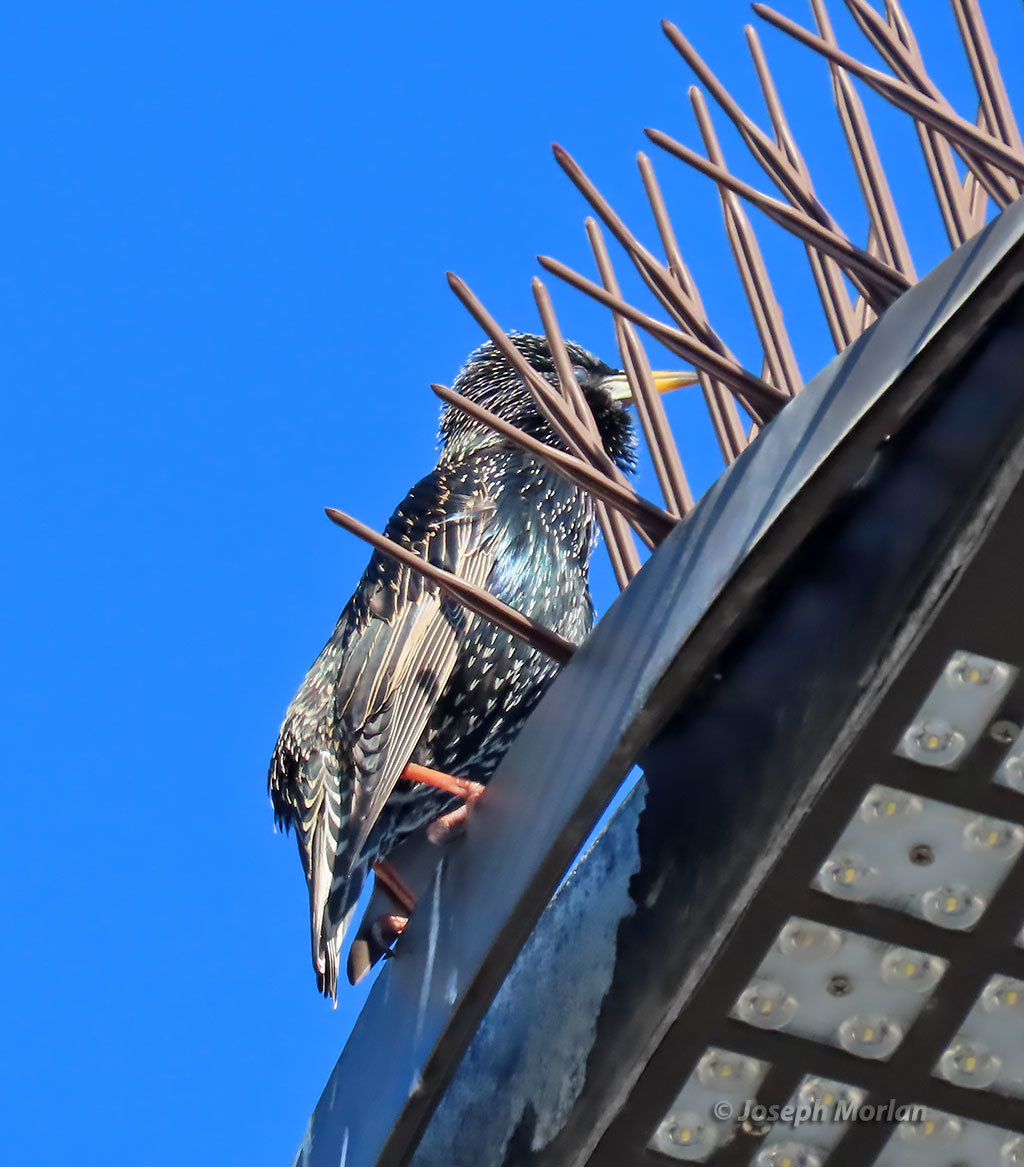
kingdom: Animalia
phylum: Chordata
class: Aves
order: Passeriformes
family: Sturnidae
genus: Sturnus
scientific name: Sturnus vulgaris
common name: Common starling
